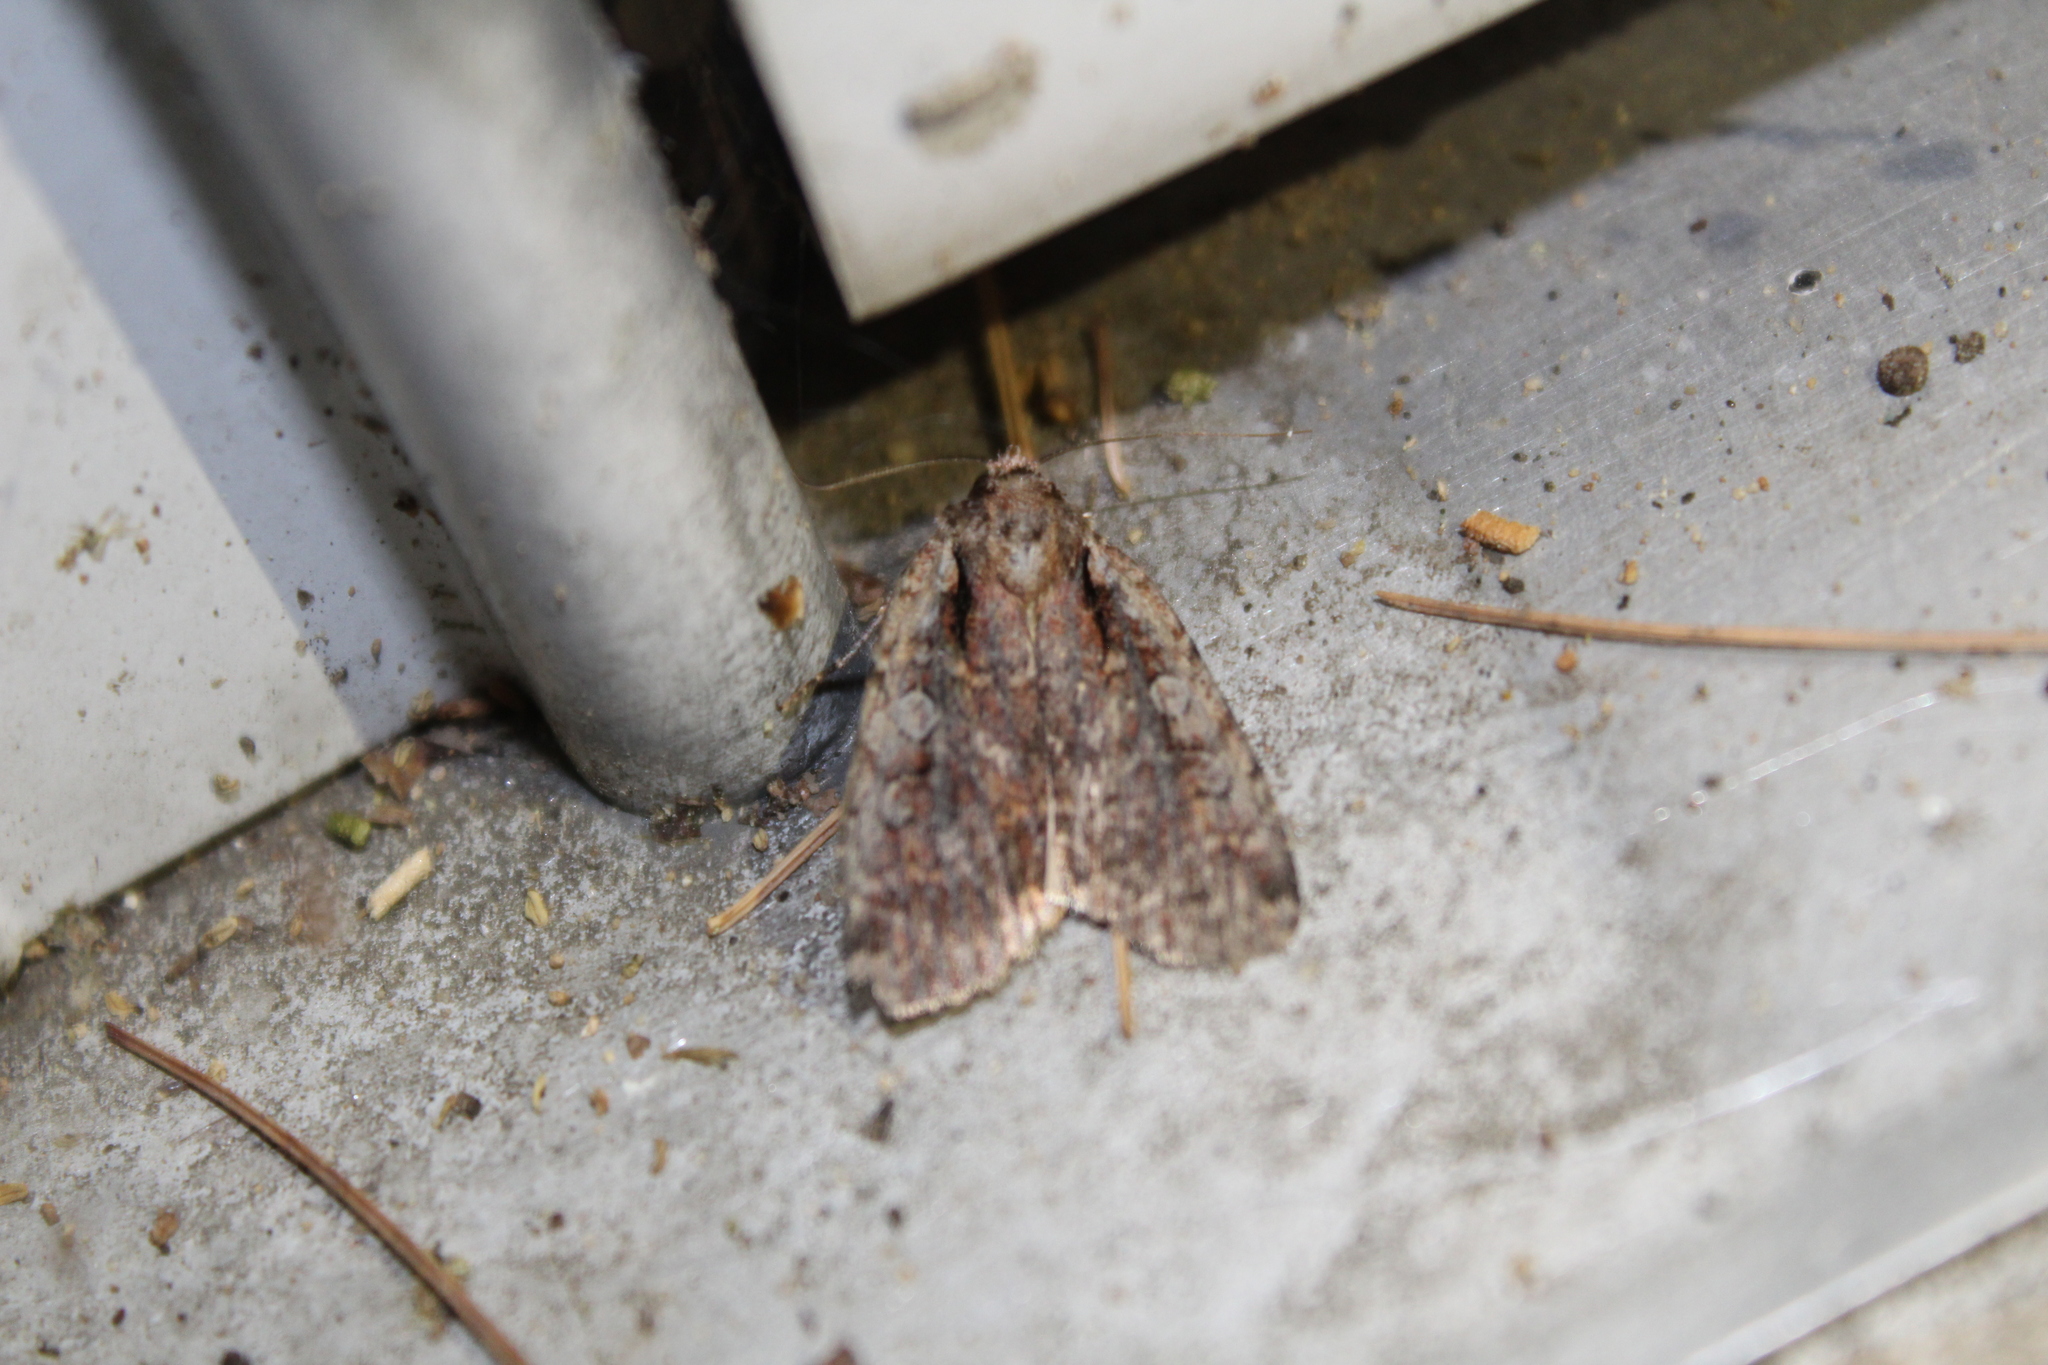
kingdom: Animalia
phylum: Arthropoda
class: Insecta
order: Lepidoptera
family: Noctuidae
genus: Eueretagrotis
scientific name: Eueretagrotis attentus
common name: Attentive dart
